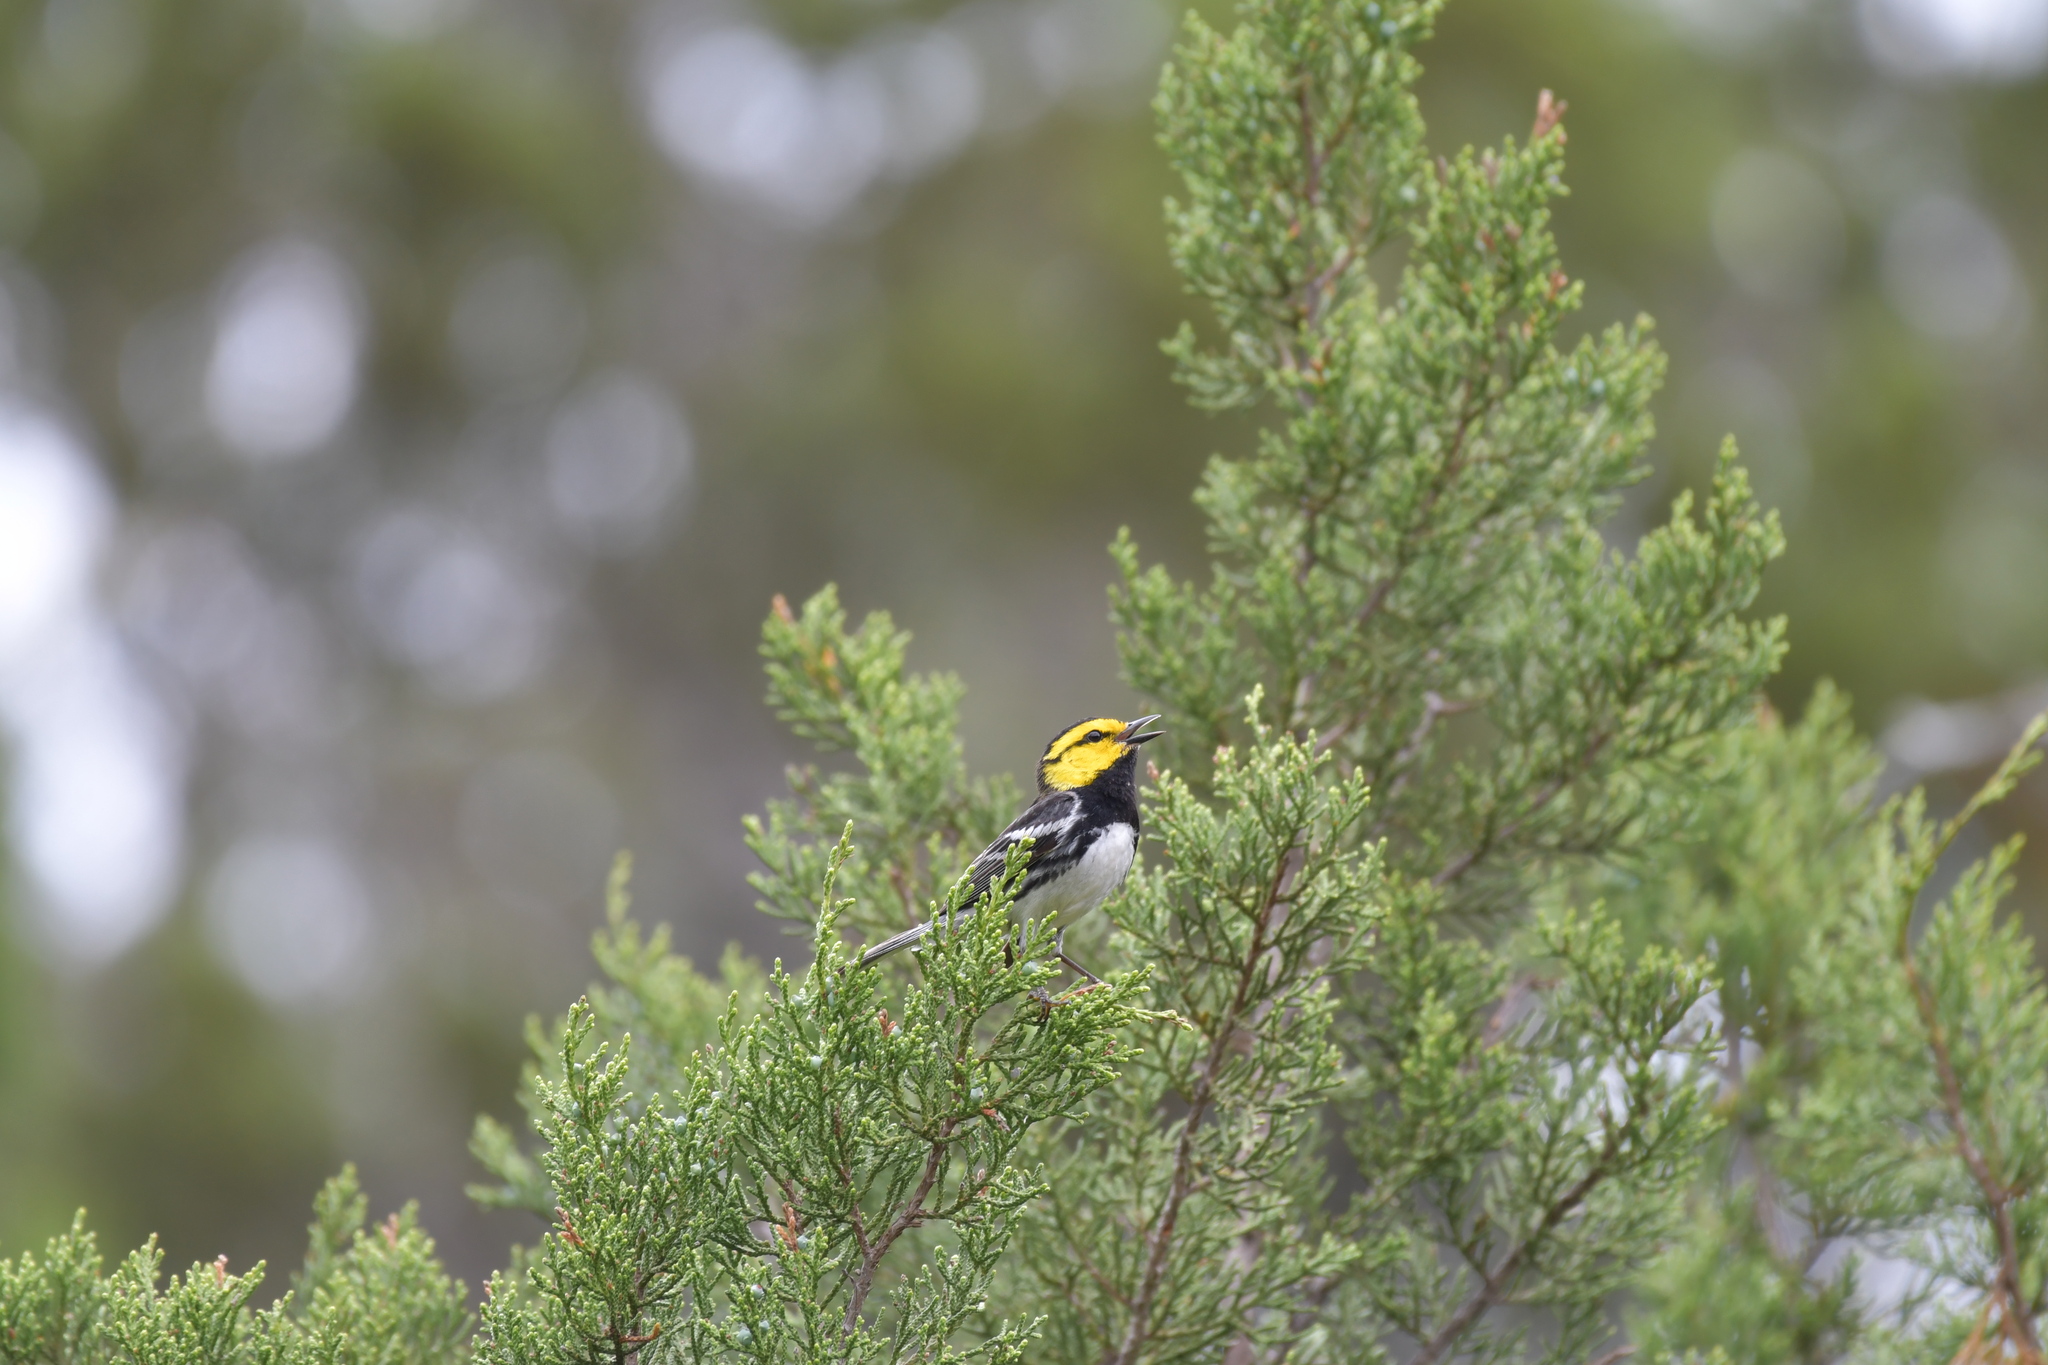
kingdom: Animalia
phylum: Chordata
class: Aves
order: Passeriformes
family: Parulidae
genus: Setophaga
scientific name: Setophaga chrysoparia
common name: Golden-cheeked warbler
